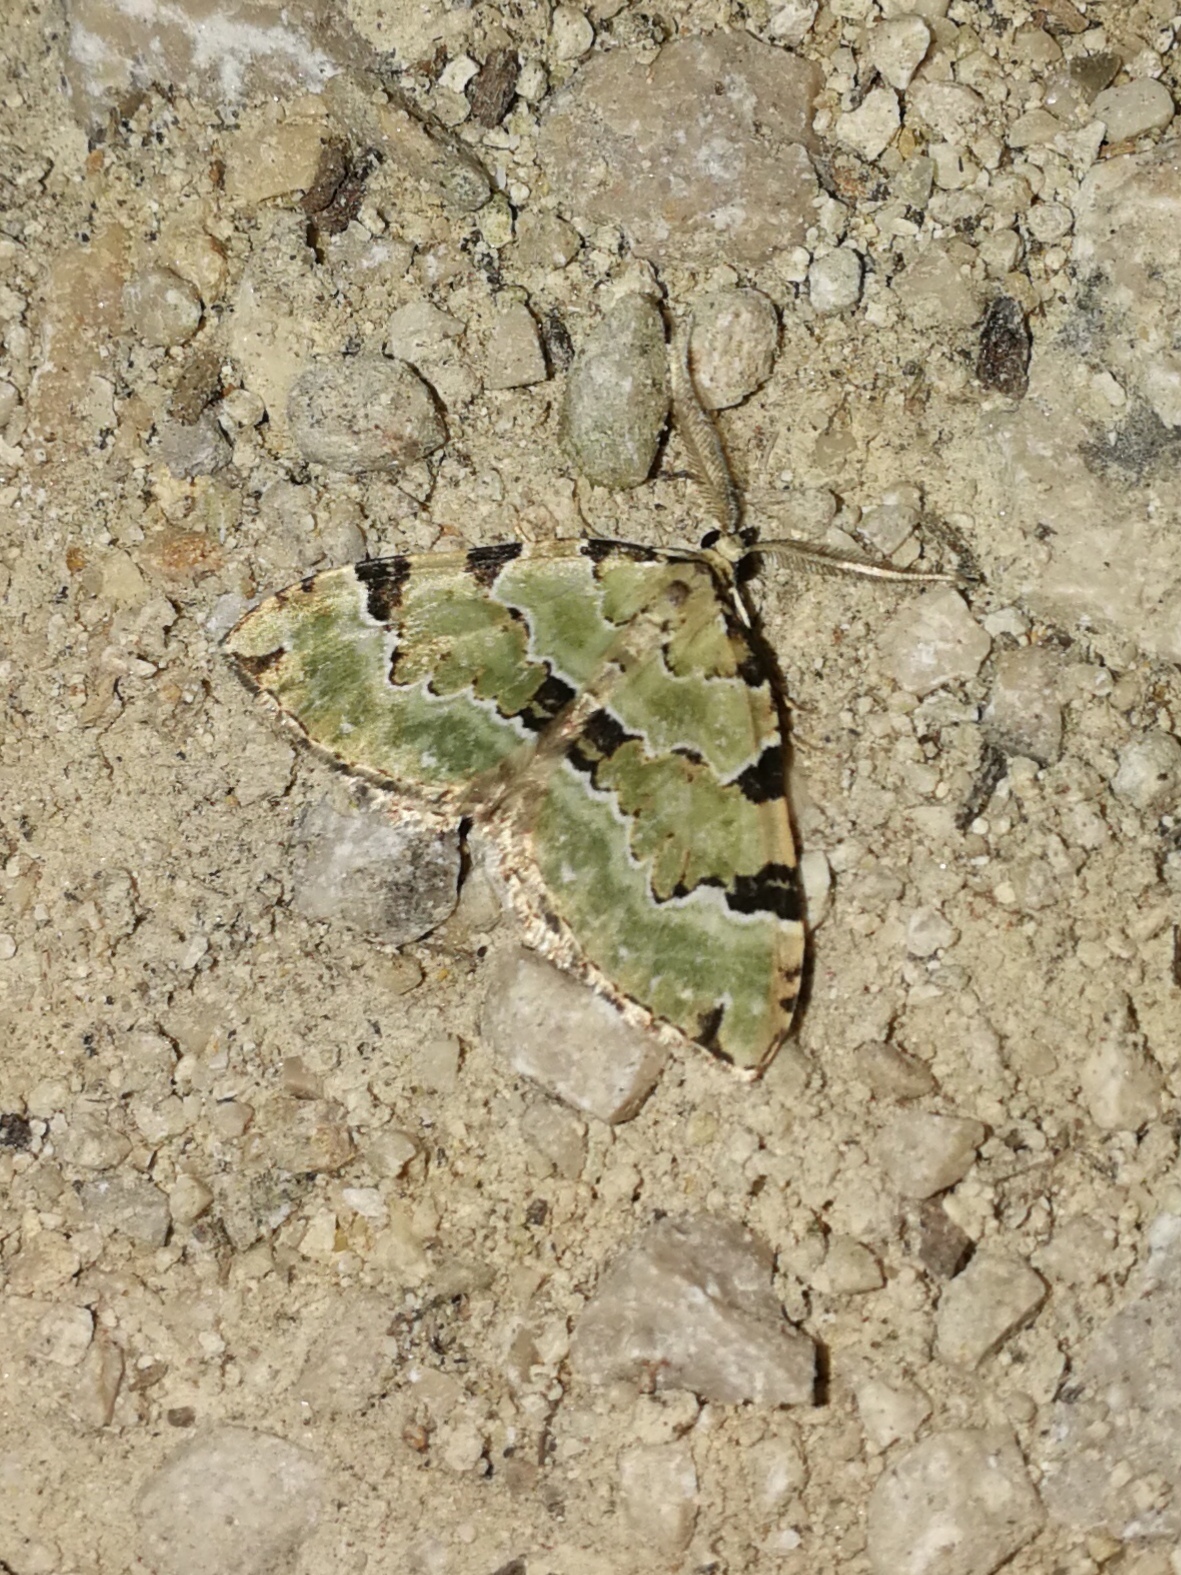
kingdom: Animalia
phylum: Arthropoda
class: Insecta
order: Lepidoptera
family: Geometridae
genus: Colostygia
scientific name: Colostygia pectinataria
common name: Green carpet
